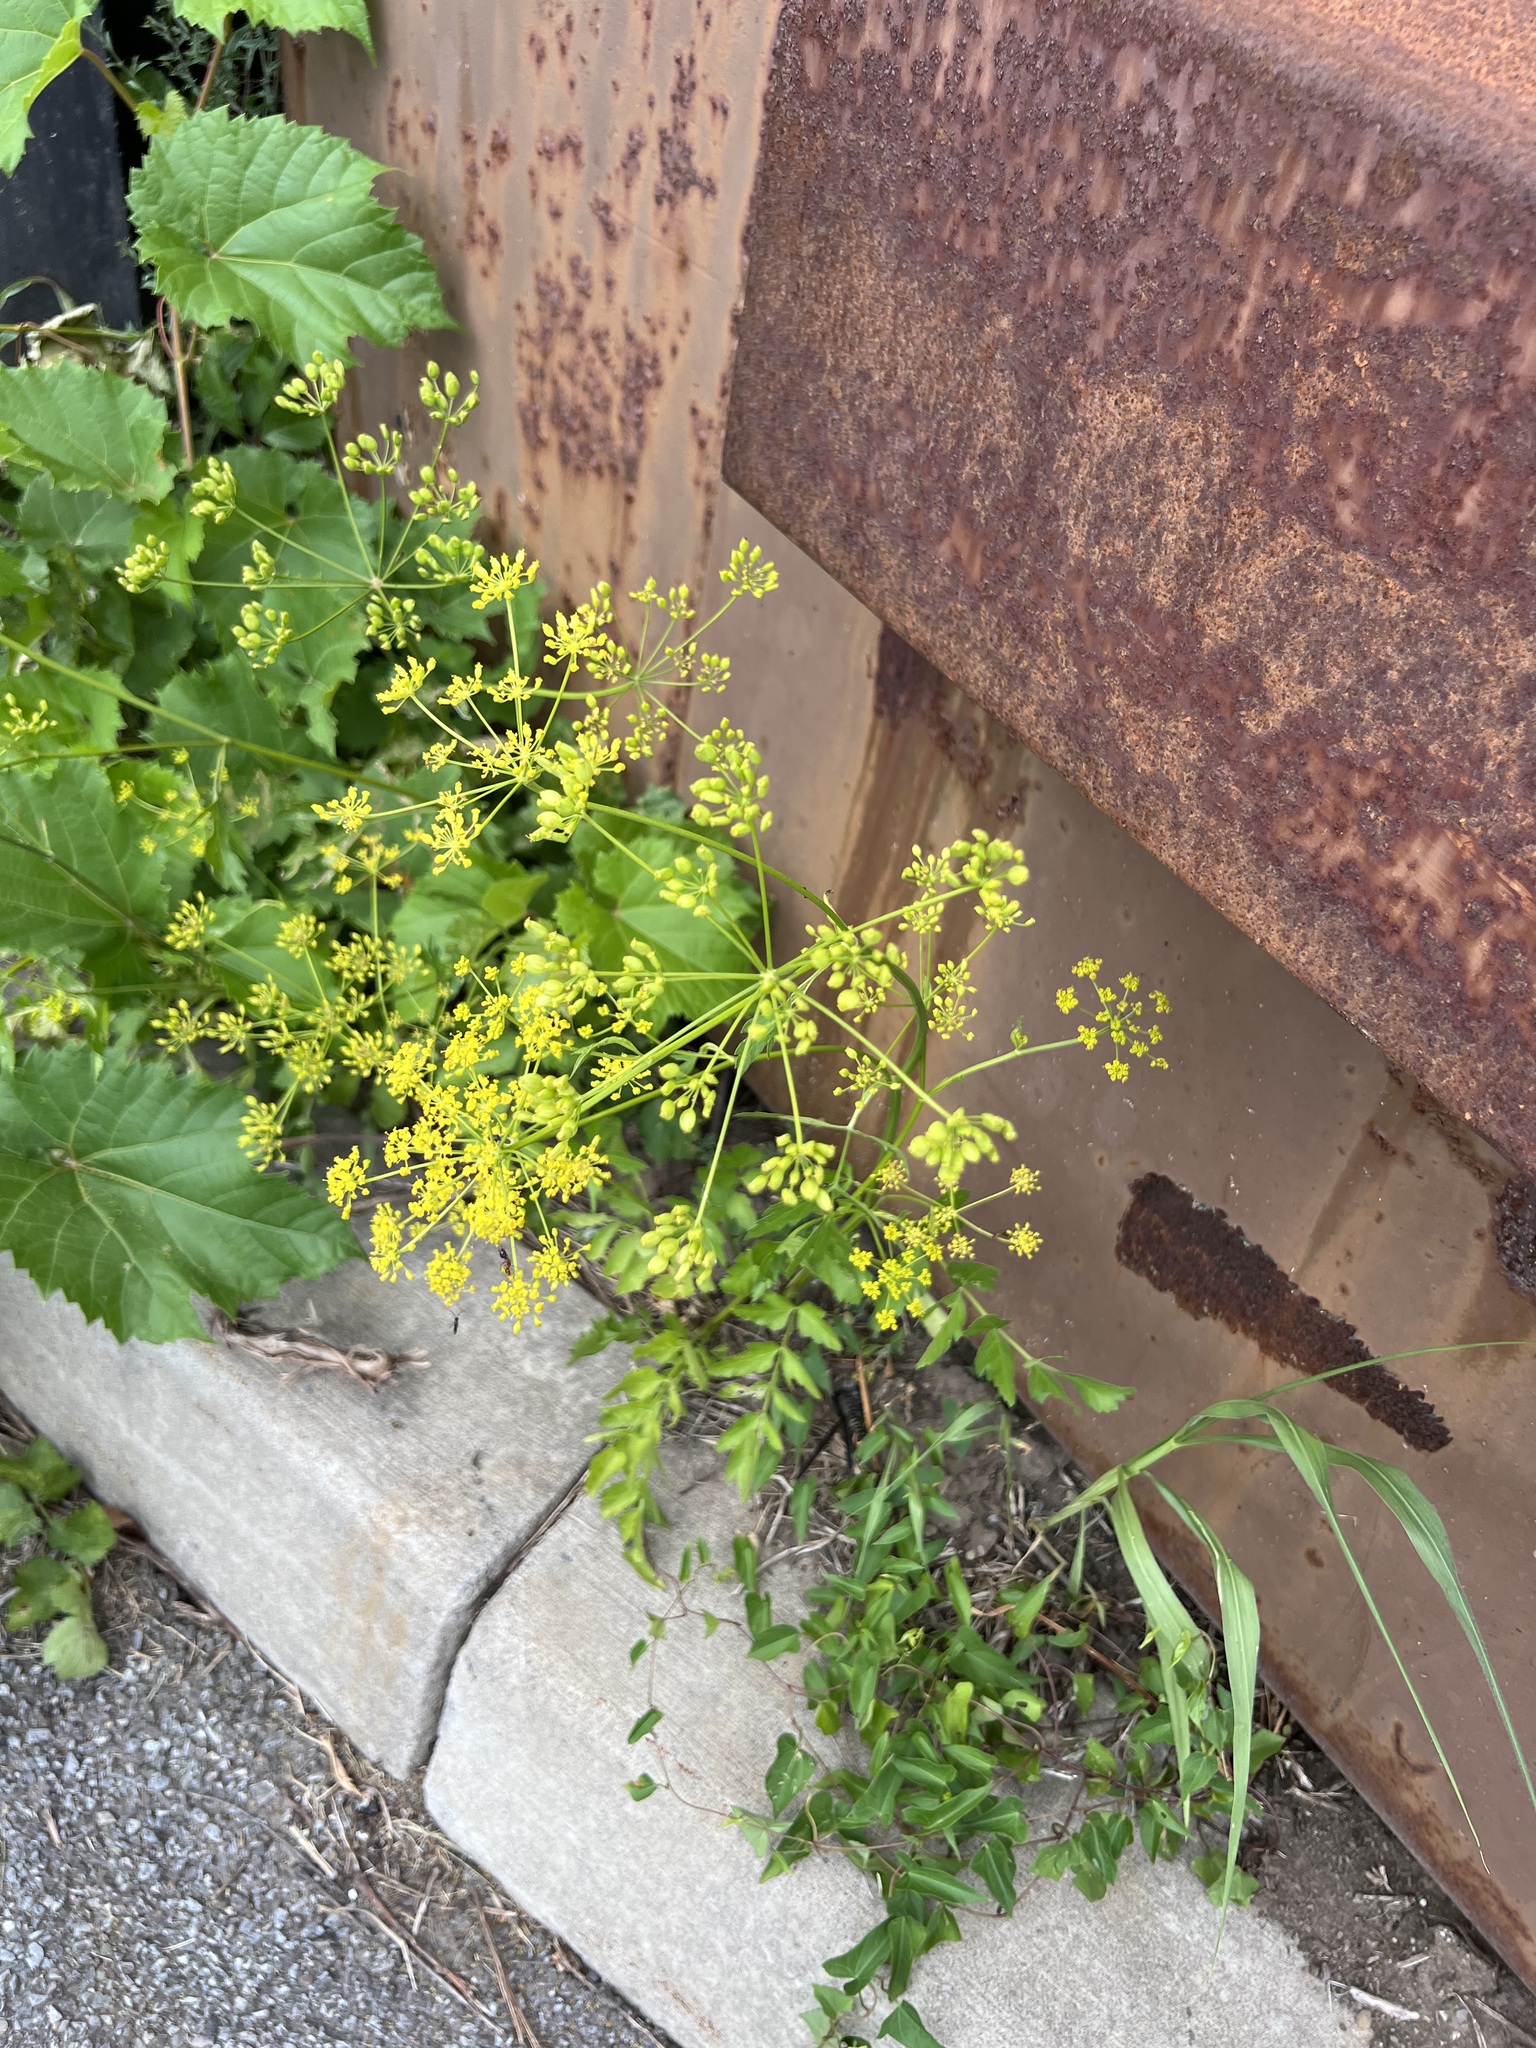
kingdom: Plantae
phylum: Tracheophyta
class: Magnoliopsida
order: Apiales
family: Apiaceae
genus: Pastinaca
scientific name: Pastinaca sativa
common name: Wild parsnip
